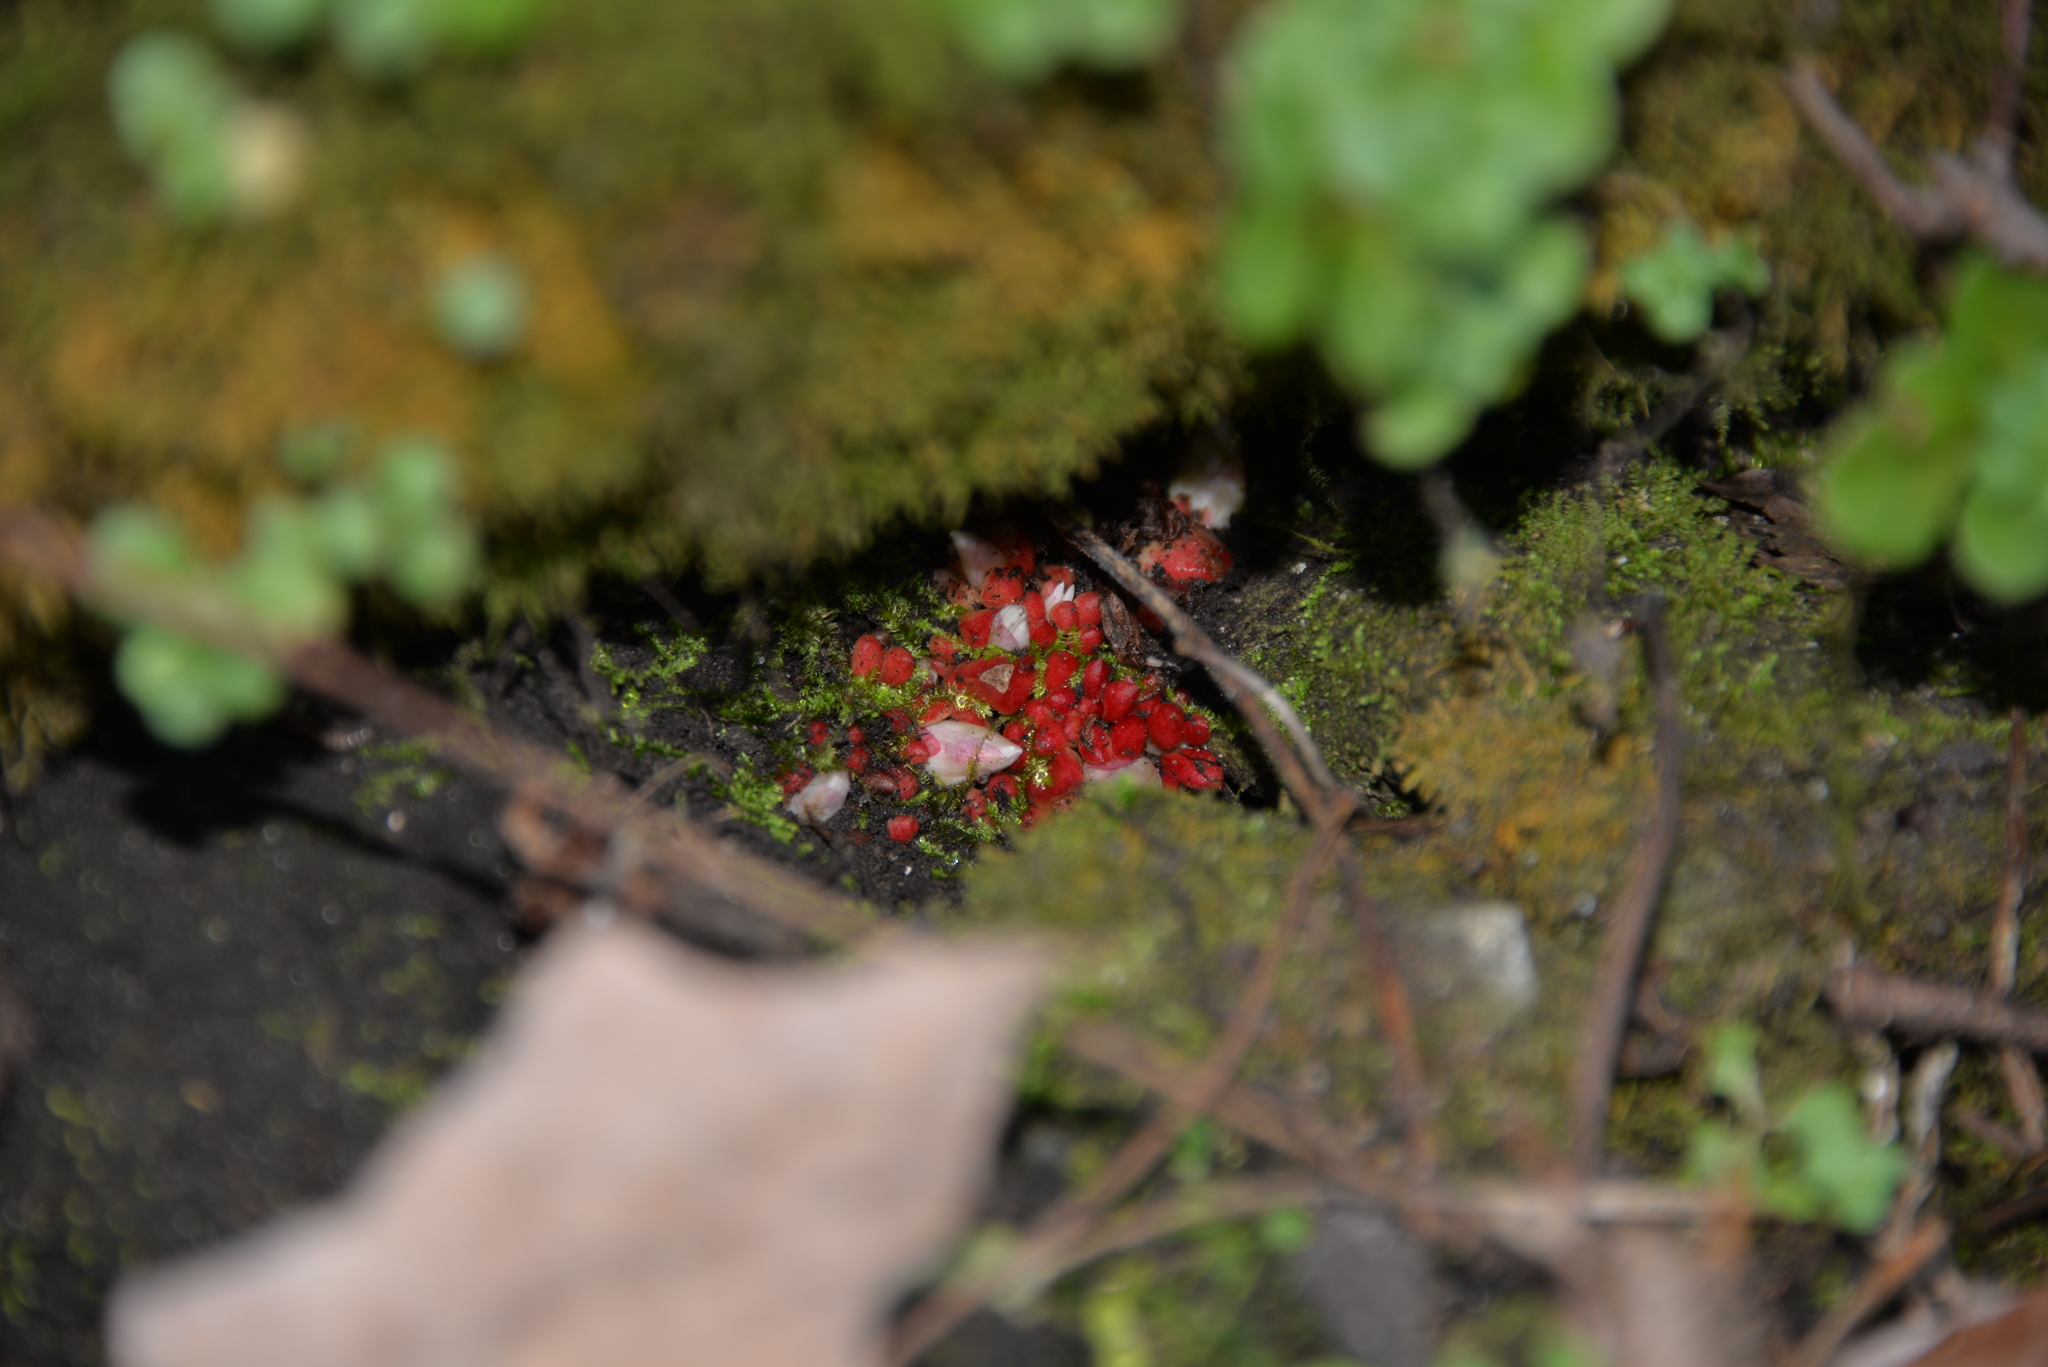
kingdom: Plantae
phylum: Tracheophyta
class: Magnoliopsida
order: Ranunculales
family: Papaveraceae
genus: Dicentra
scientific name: Dicentra cucullaria
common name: Dutchman's breeches
